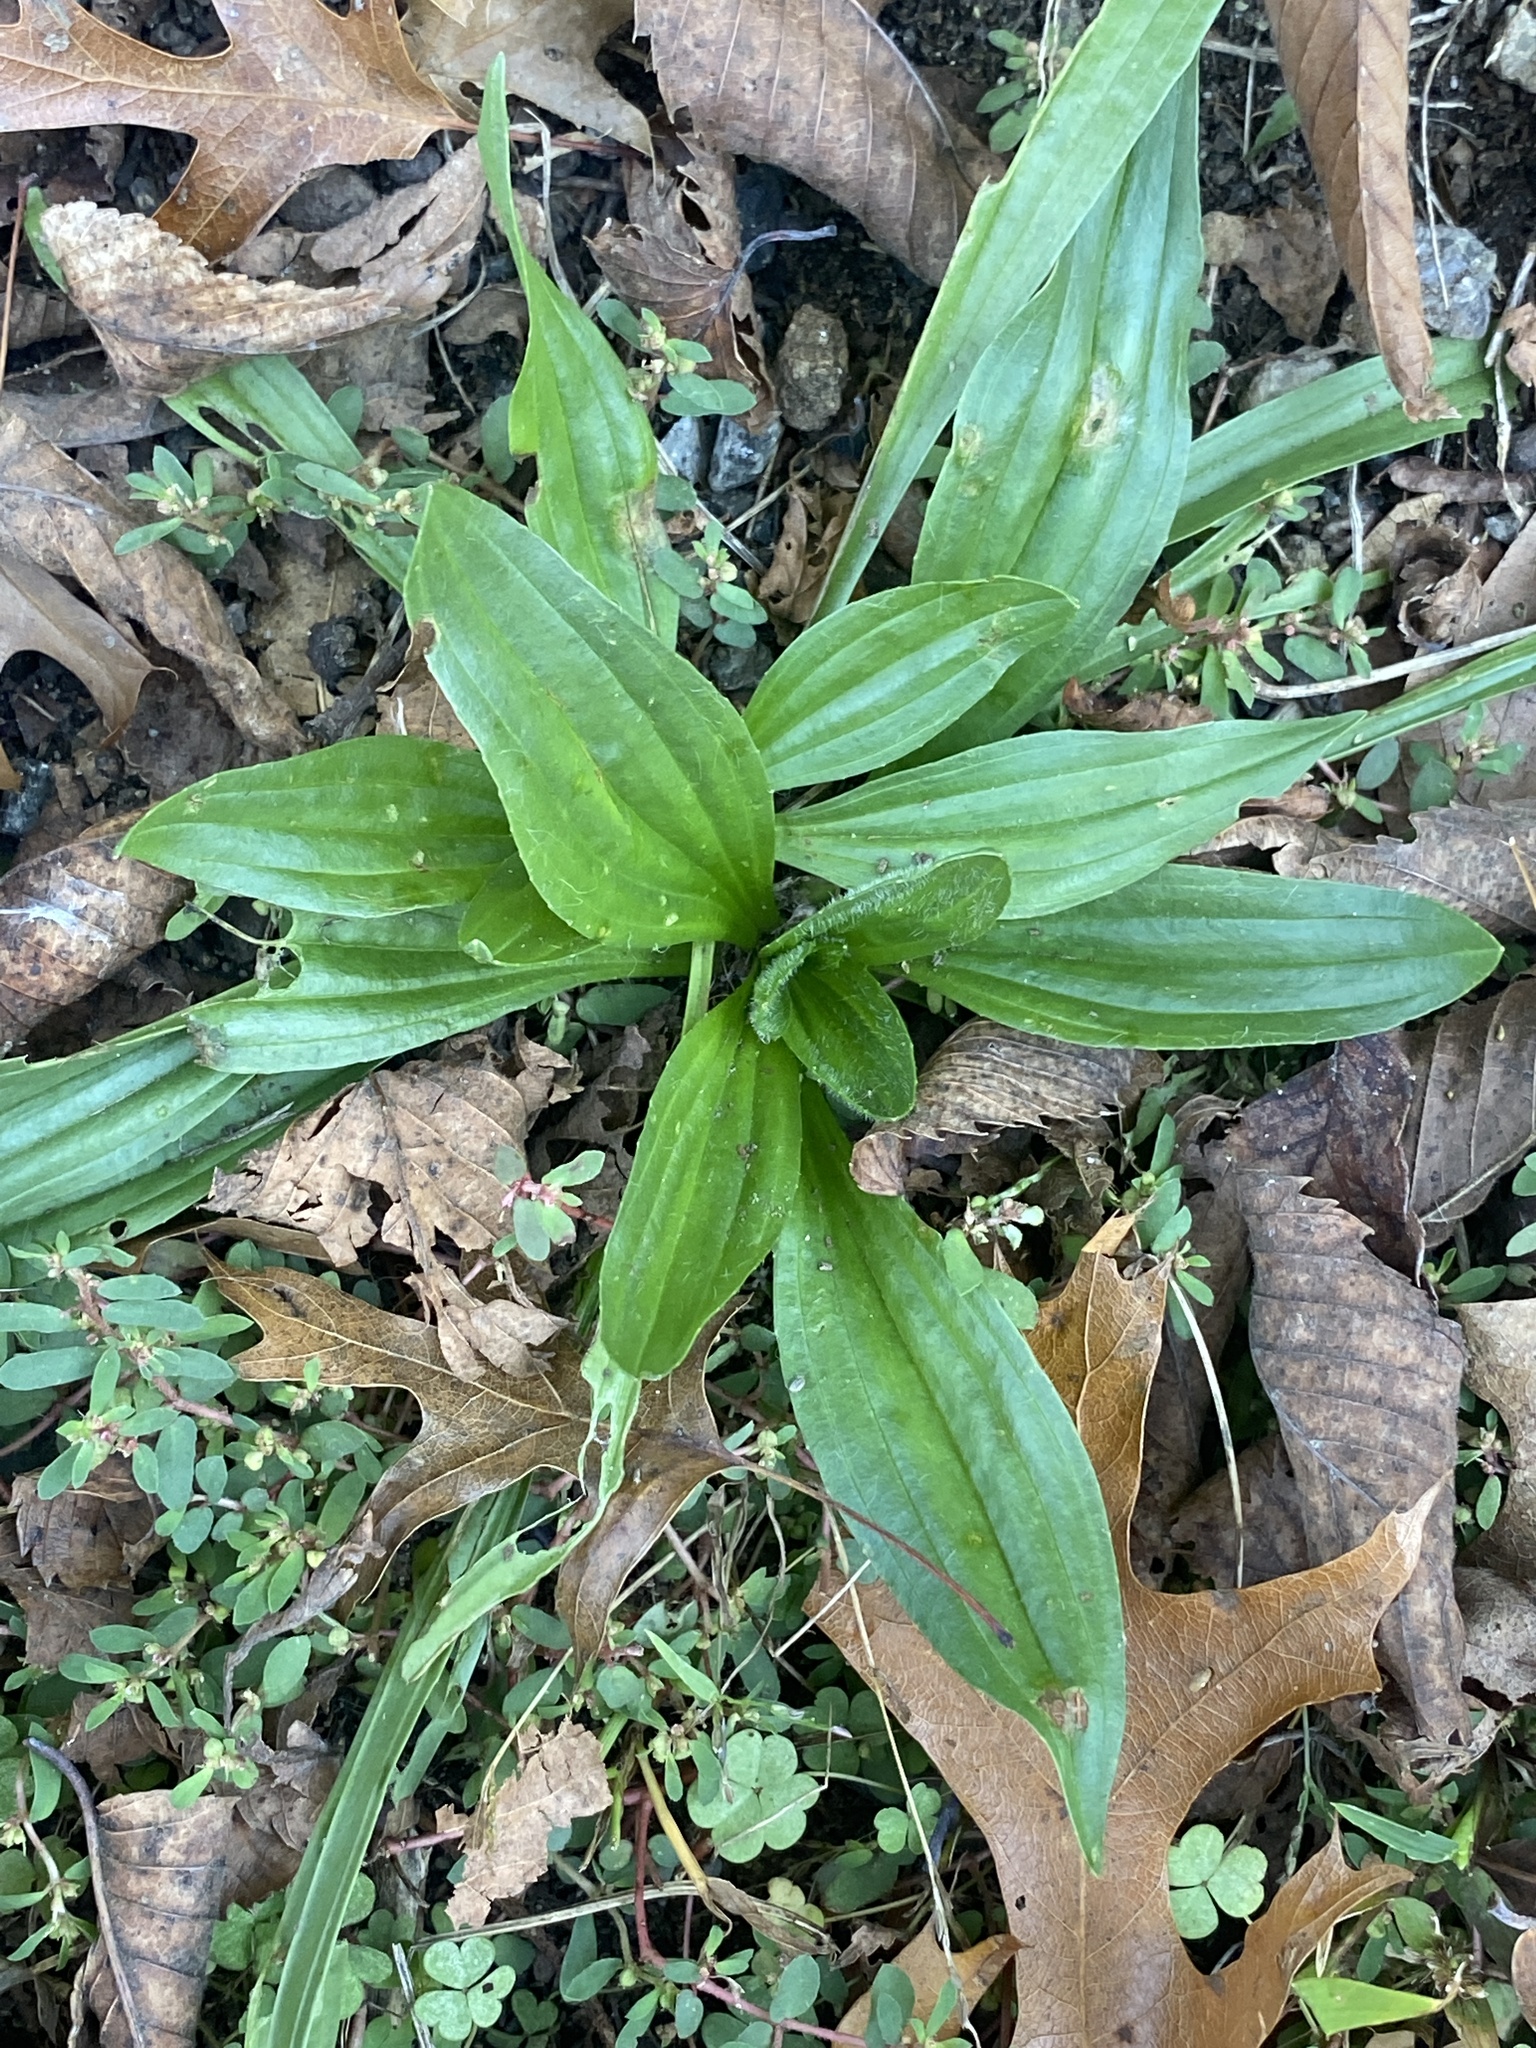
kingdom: Plantae
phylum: Tracheophyta
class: Magnoliopsida
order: Lamiales
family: Plantaginaceae
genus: Plantago
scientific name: Plantago lanceolata
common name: Ribwort plantain
